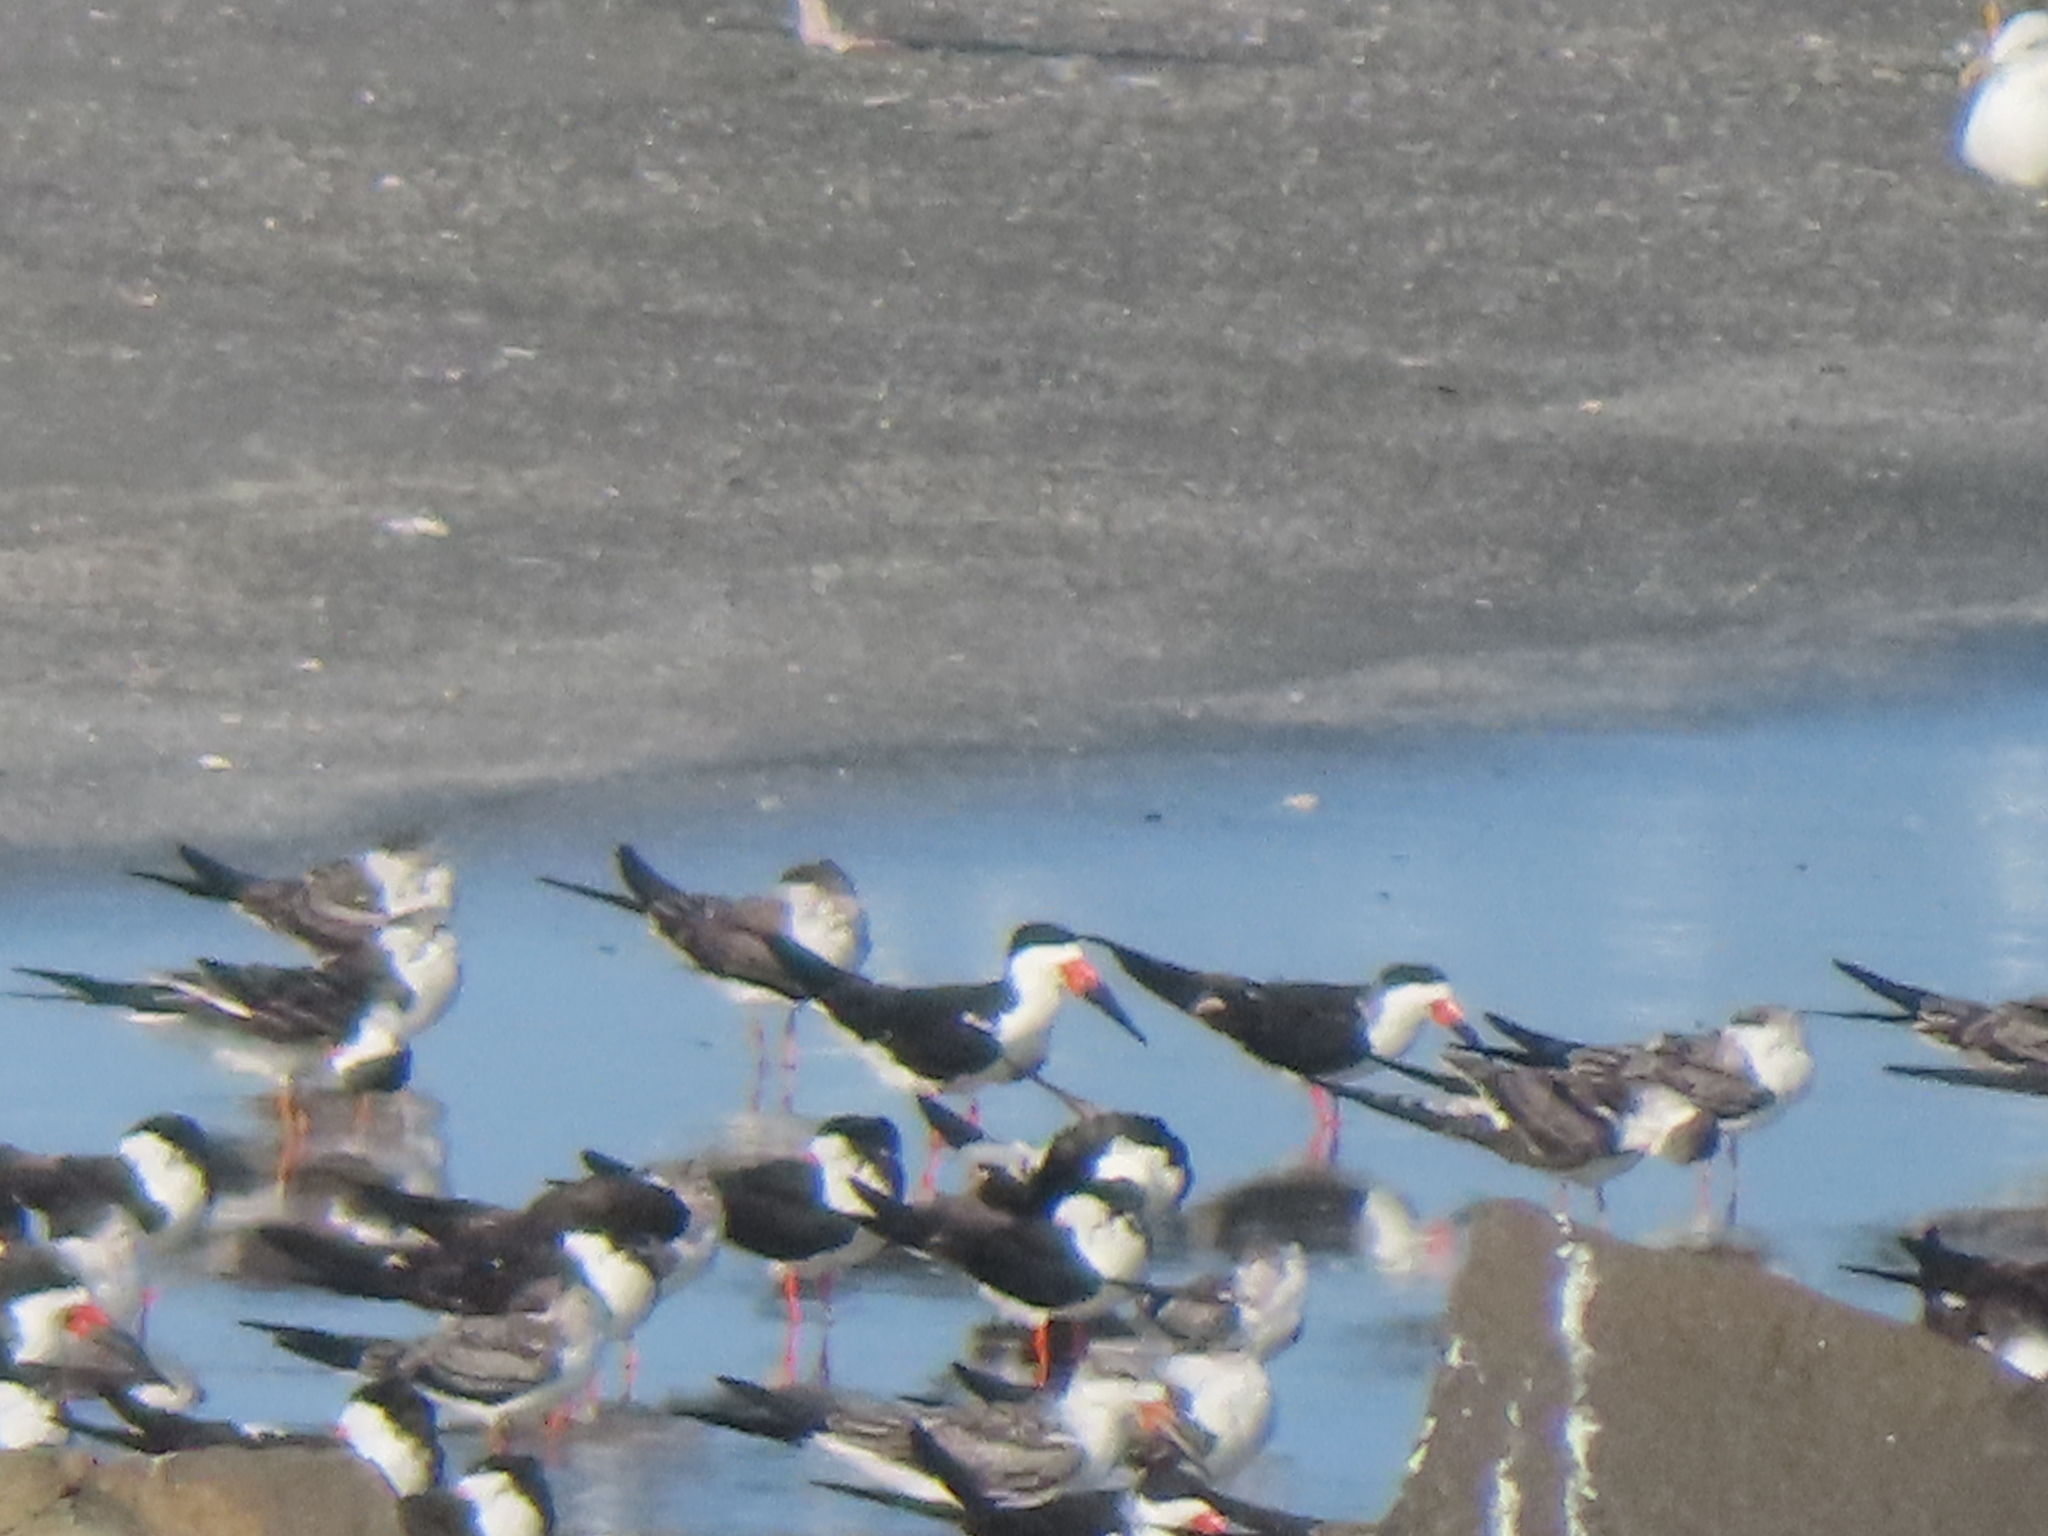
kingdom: Animalia
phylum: Chordata
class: Aves
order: Charadriiformes
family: Laridae
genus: Rynchops
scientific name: Rynchops niger
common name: Black skimmer
